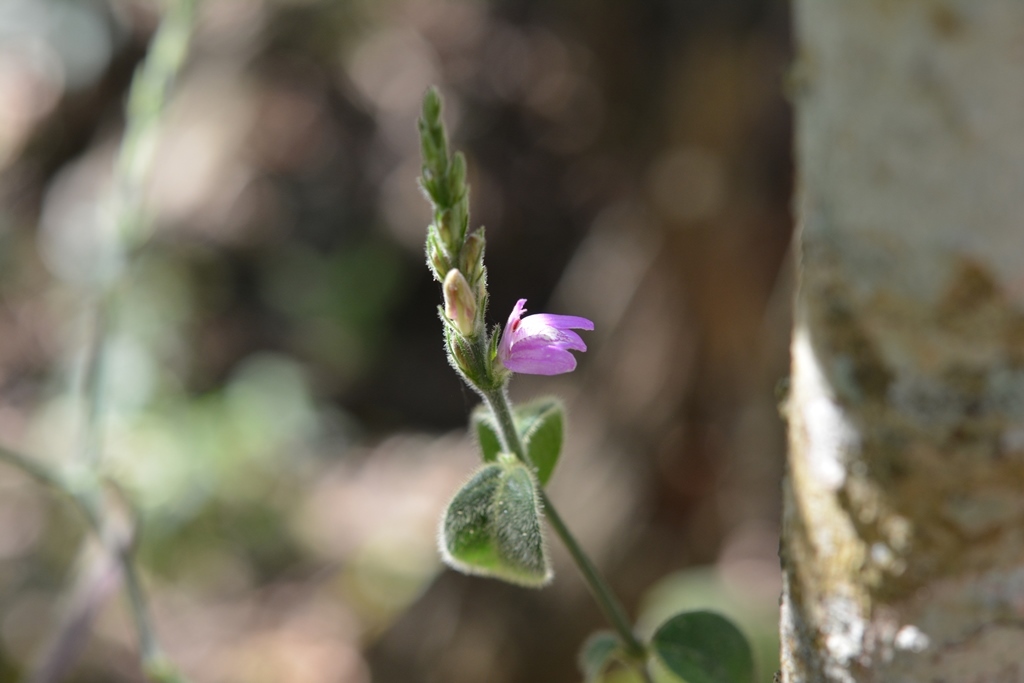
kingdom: Plantae
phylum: Tracheophyta
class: Magnoliopsida
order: Lamiales
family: Acanthaceae
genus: Dianthera
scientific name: Dianthera breviflora
